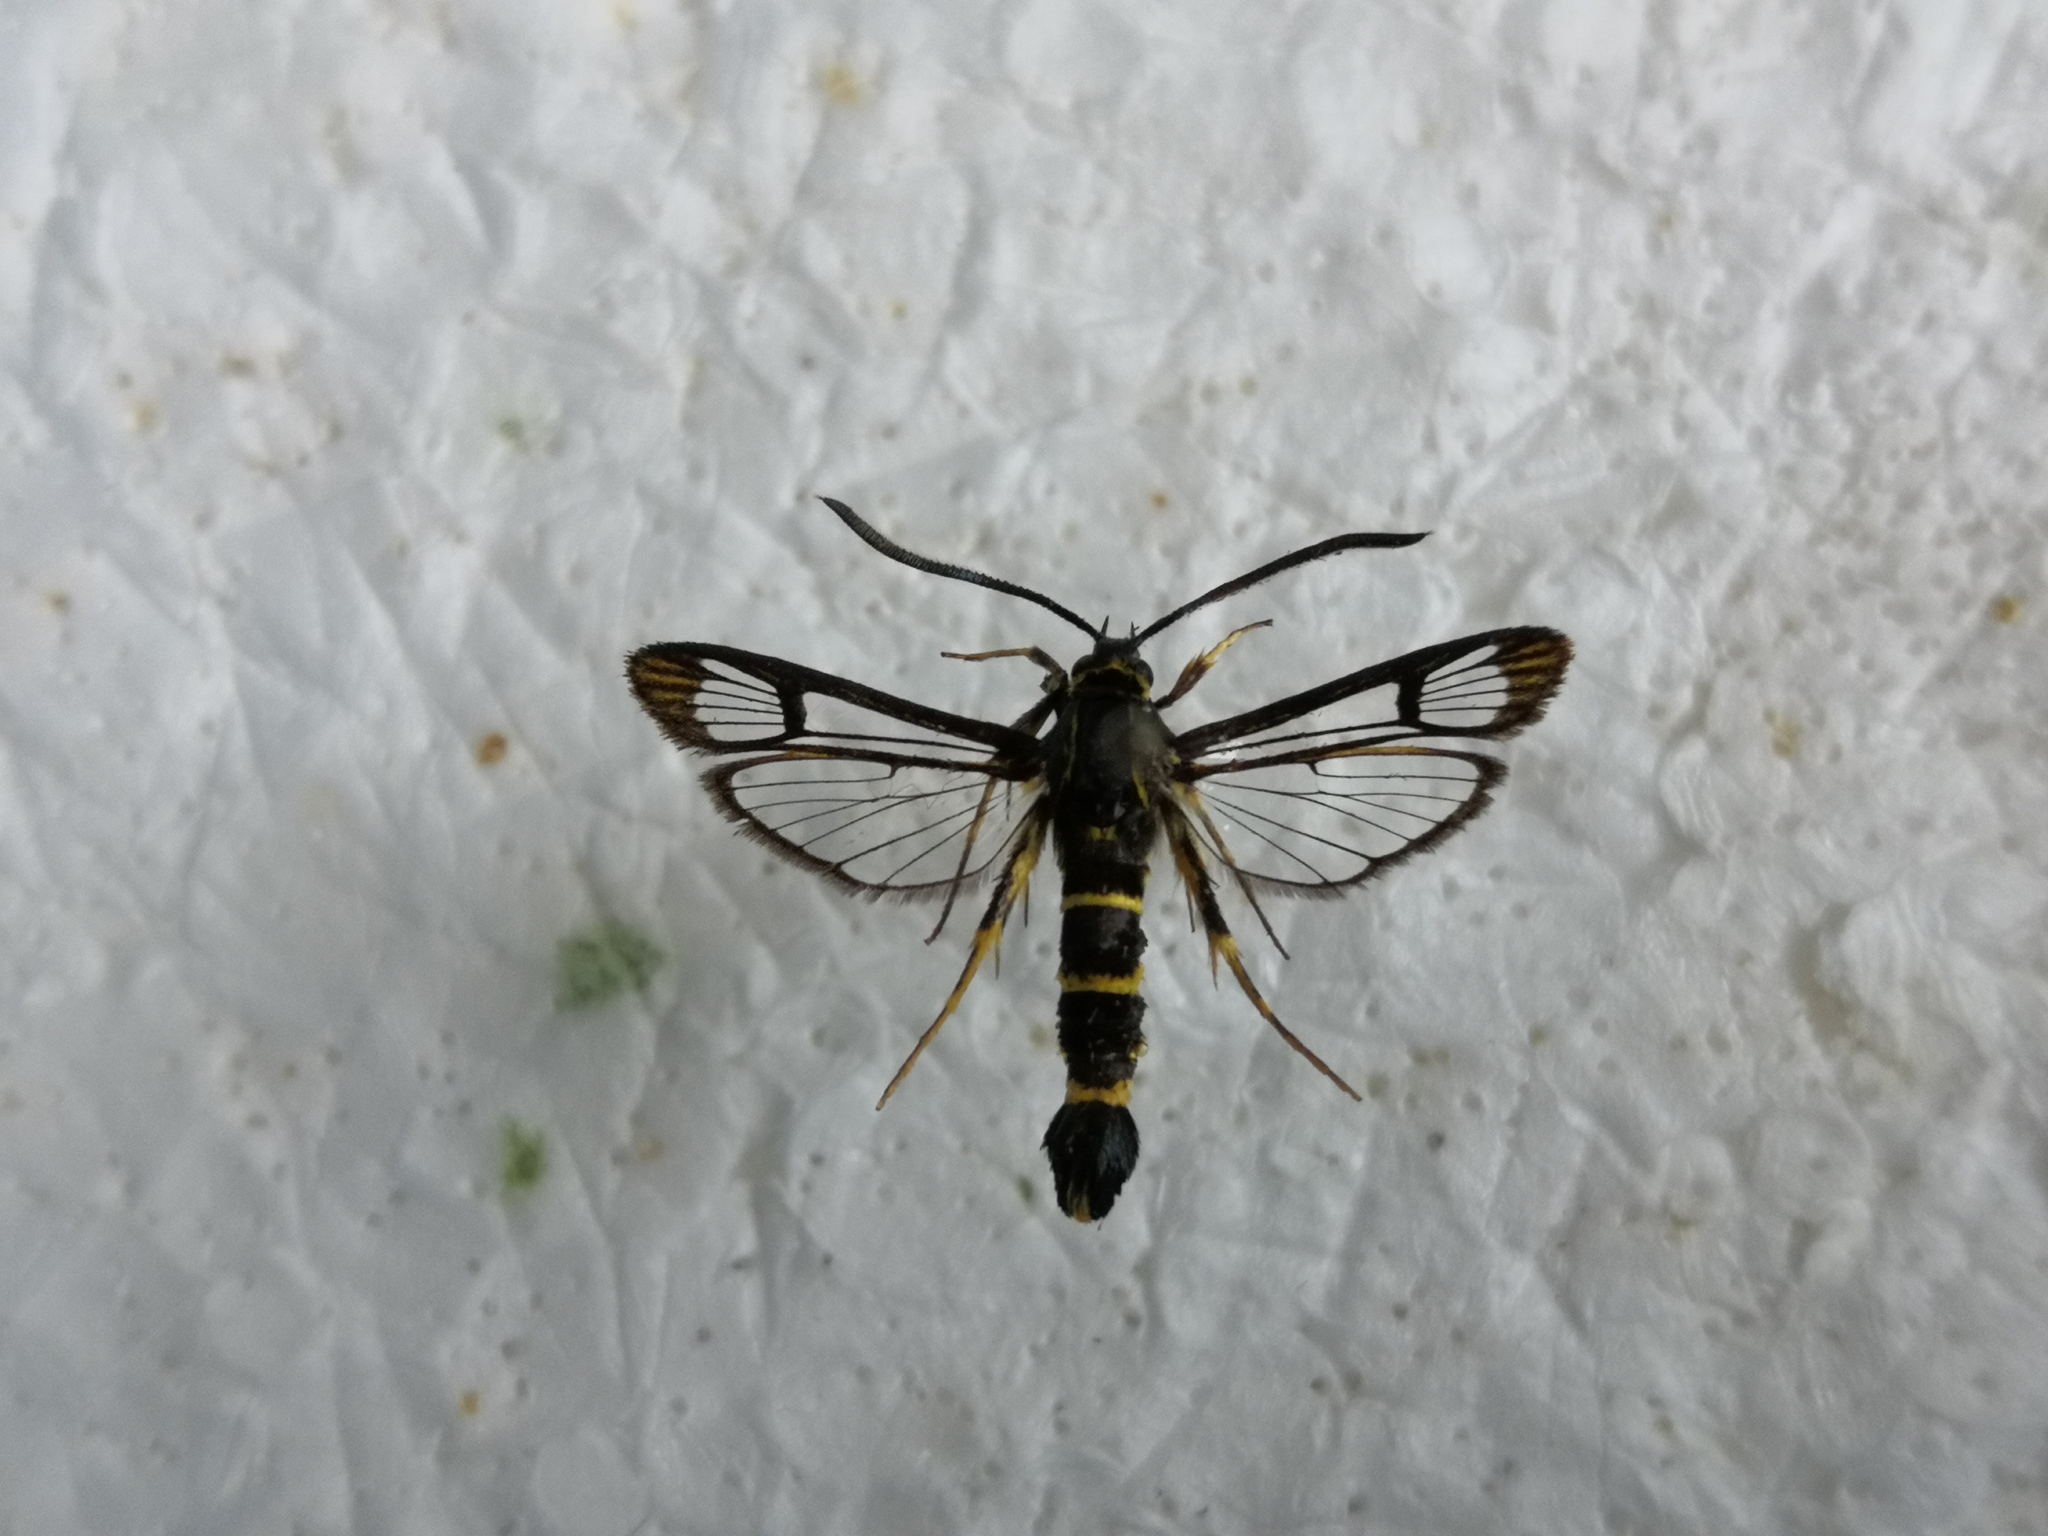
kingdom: Animalia
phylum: Arthropoda
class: Insecta
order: Lepidoptera
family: Sesiidae
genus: Synanthedon
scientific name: Synanthedon loranthi
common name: Mistletoe clearwing
